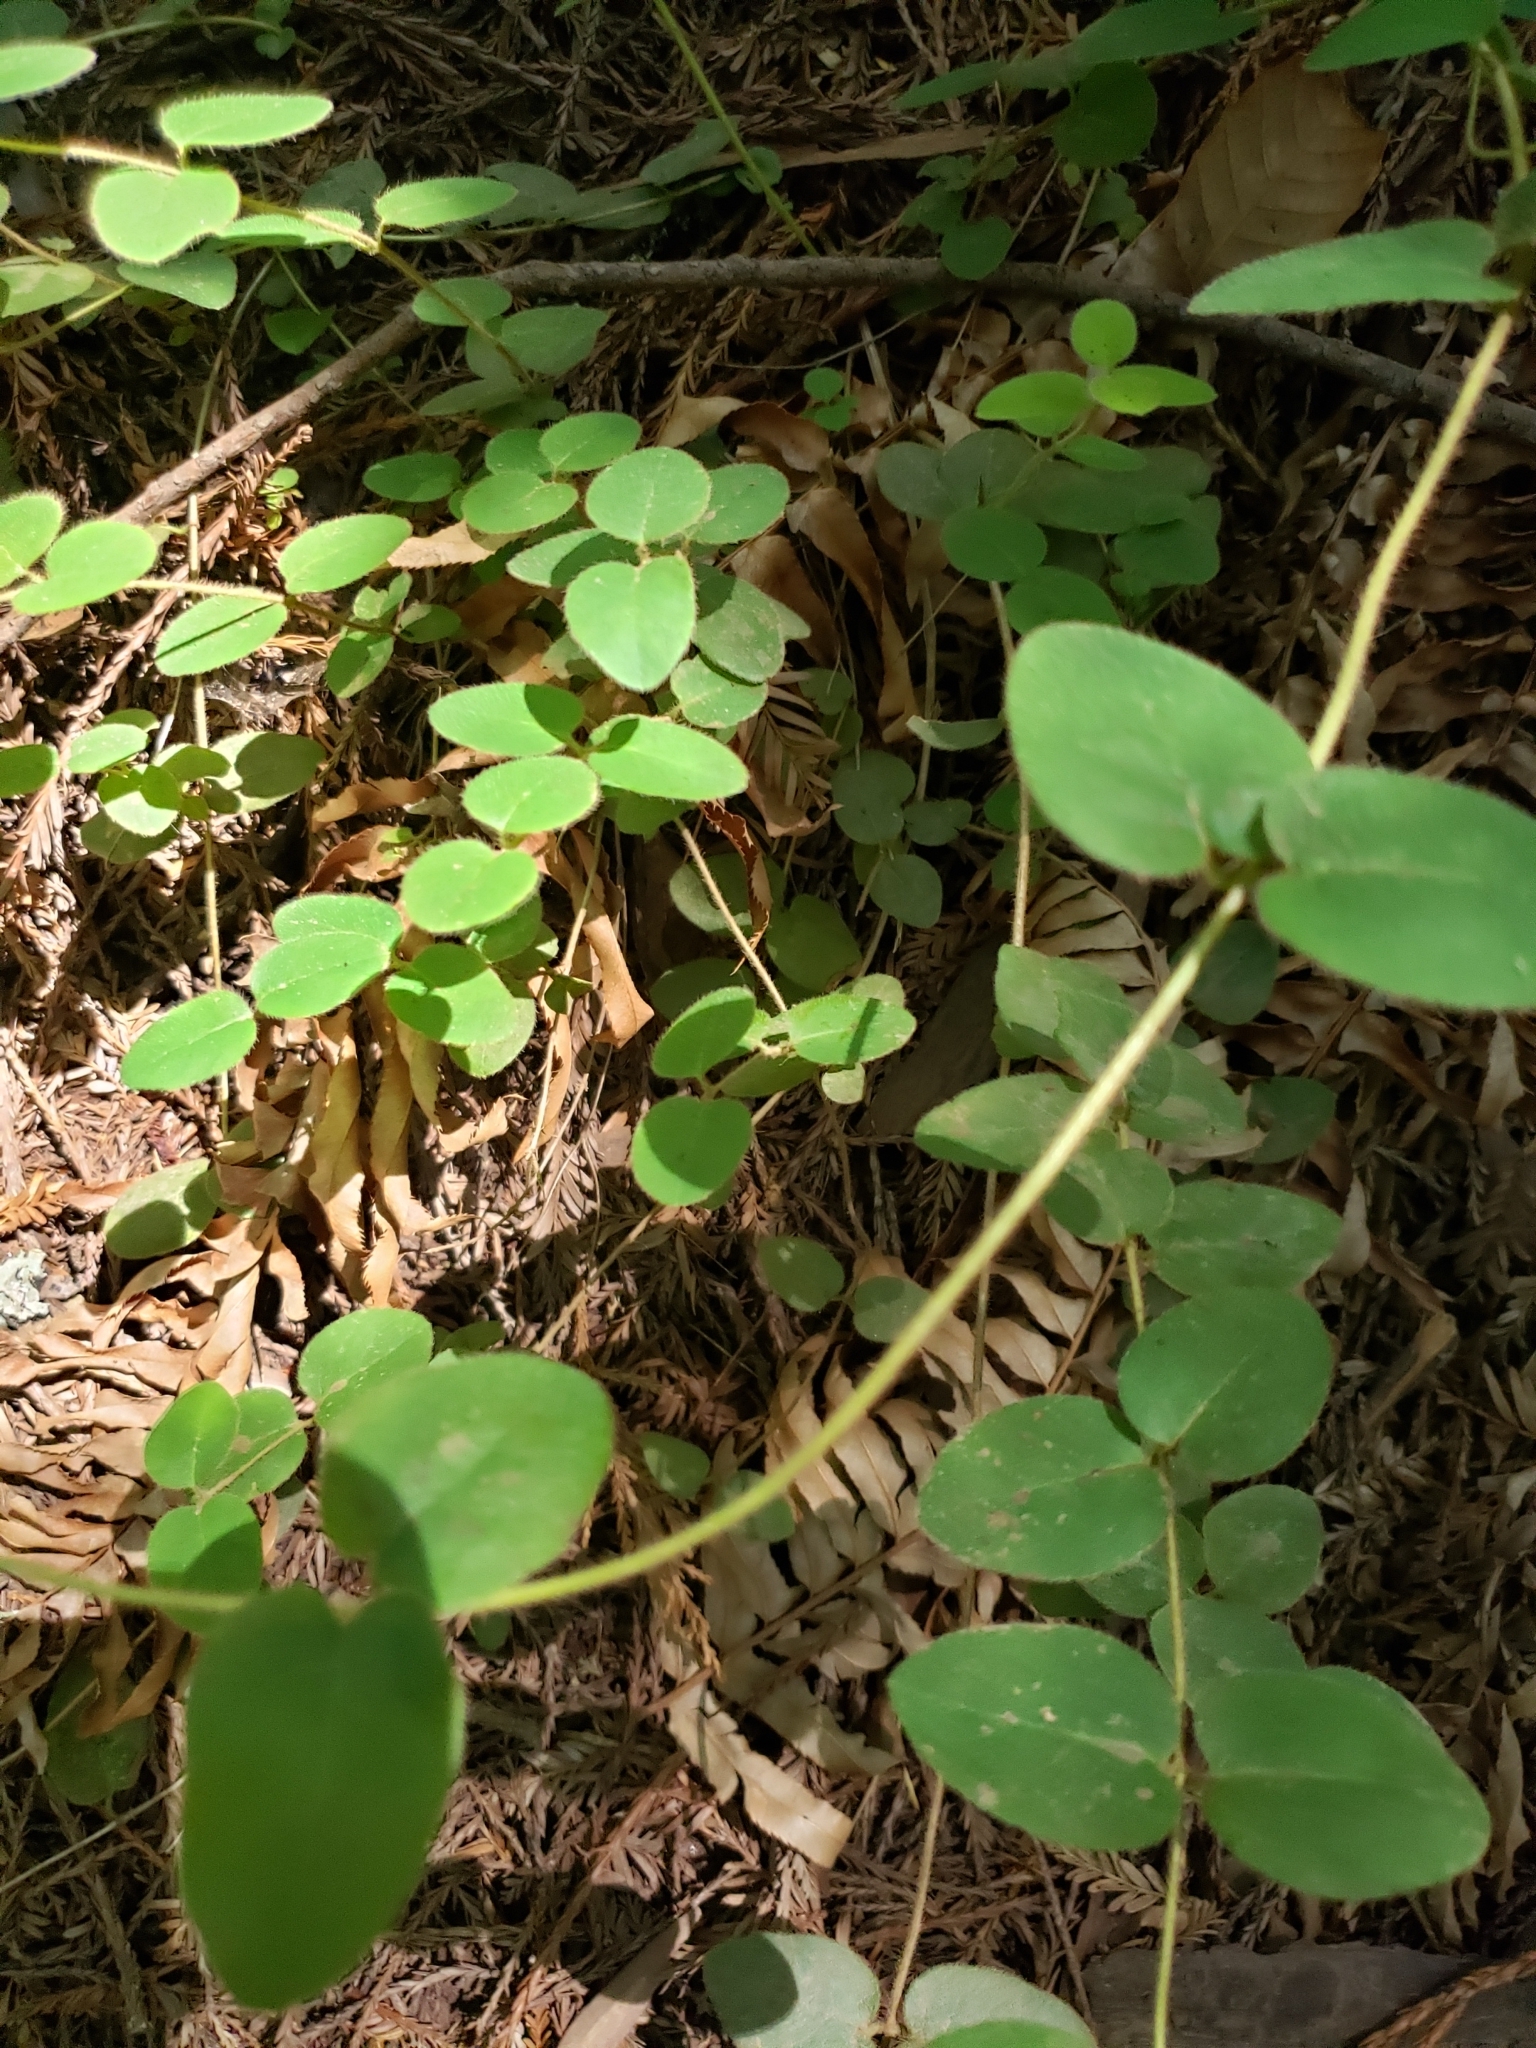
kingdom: Plantae
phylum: Tracheophyta
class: Magnoliopsida
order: Dipsacales
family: Caprifoliaceae
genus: Lonicera
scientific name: Lonicera hispidula
